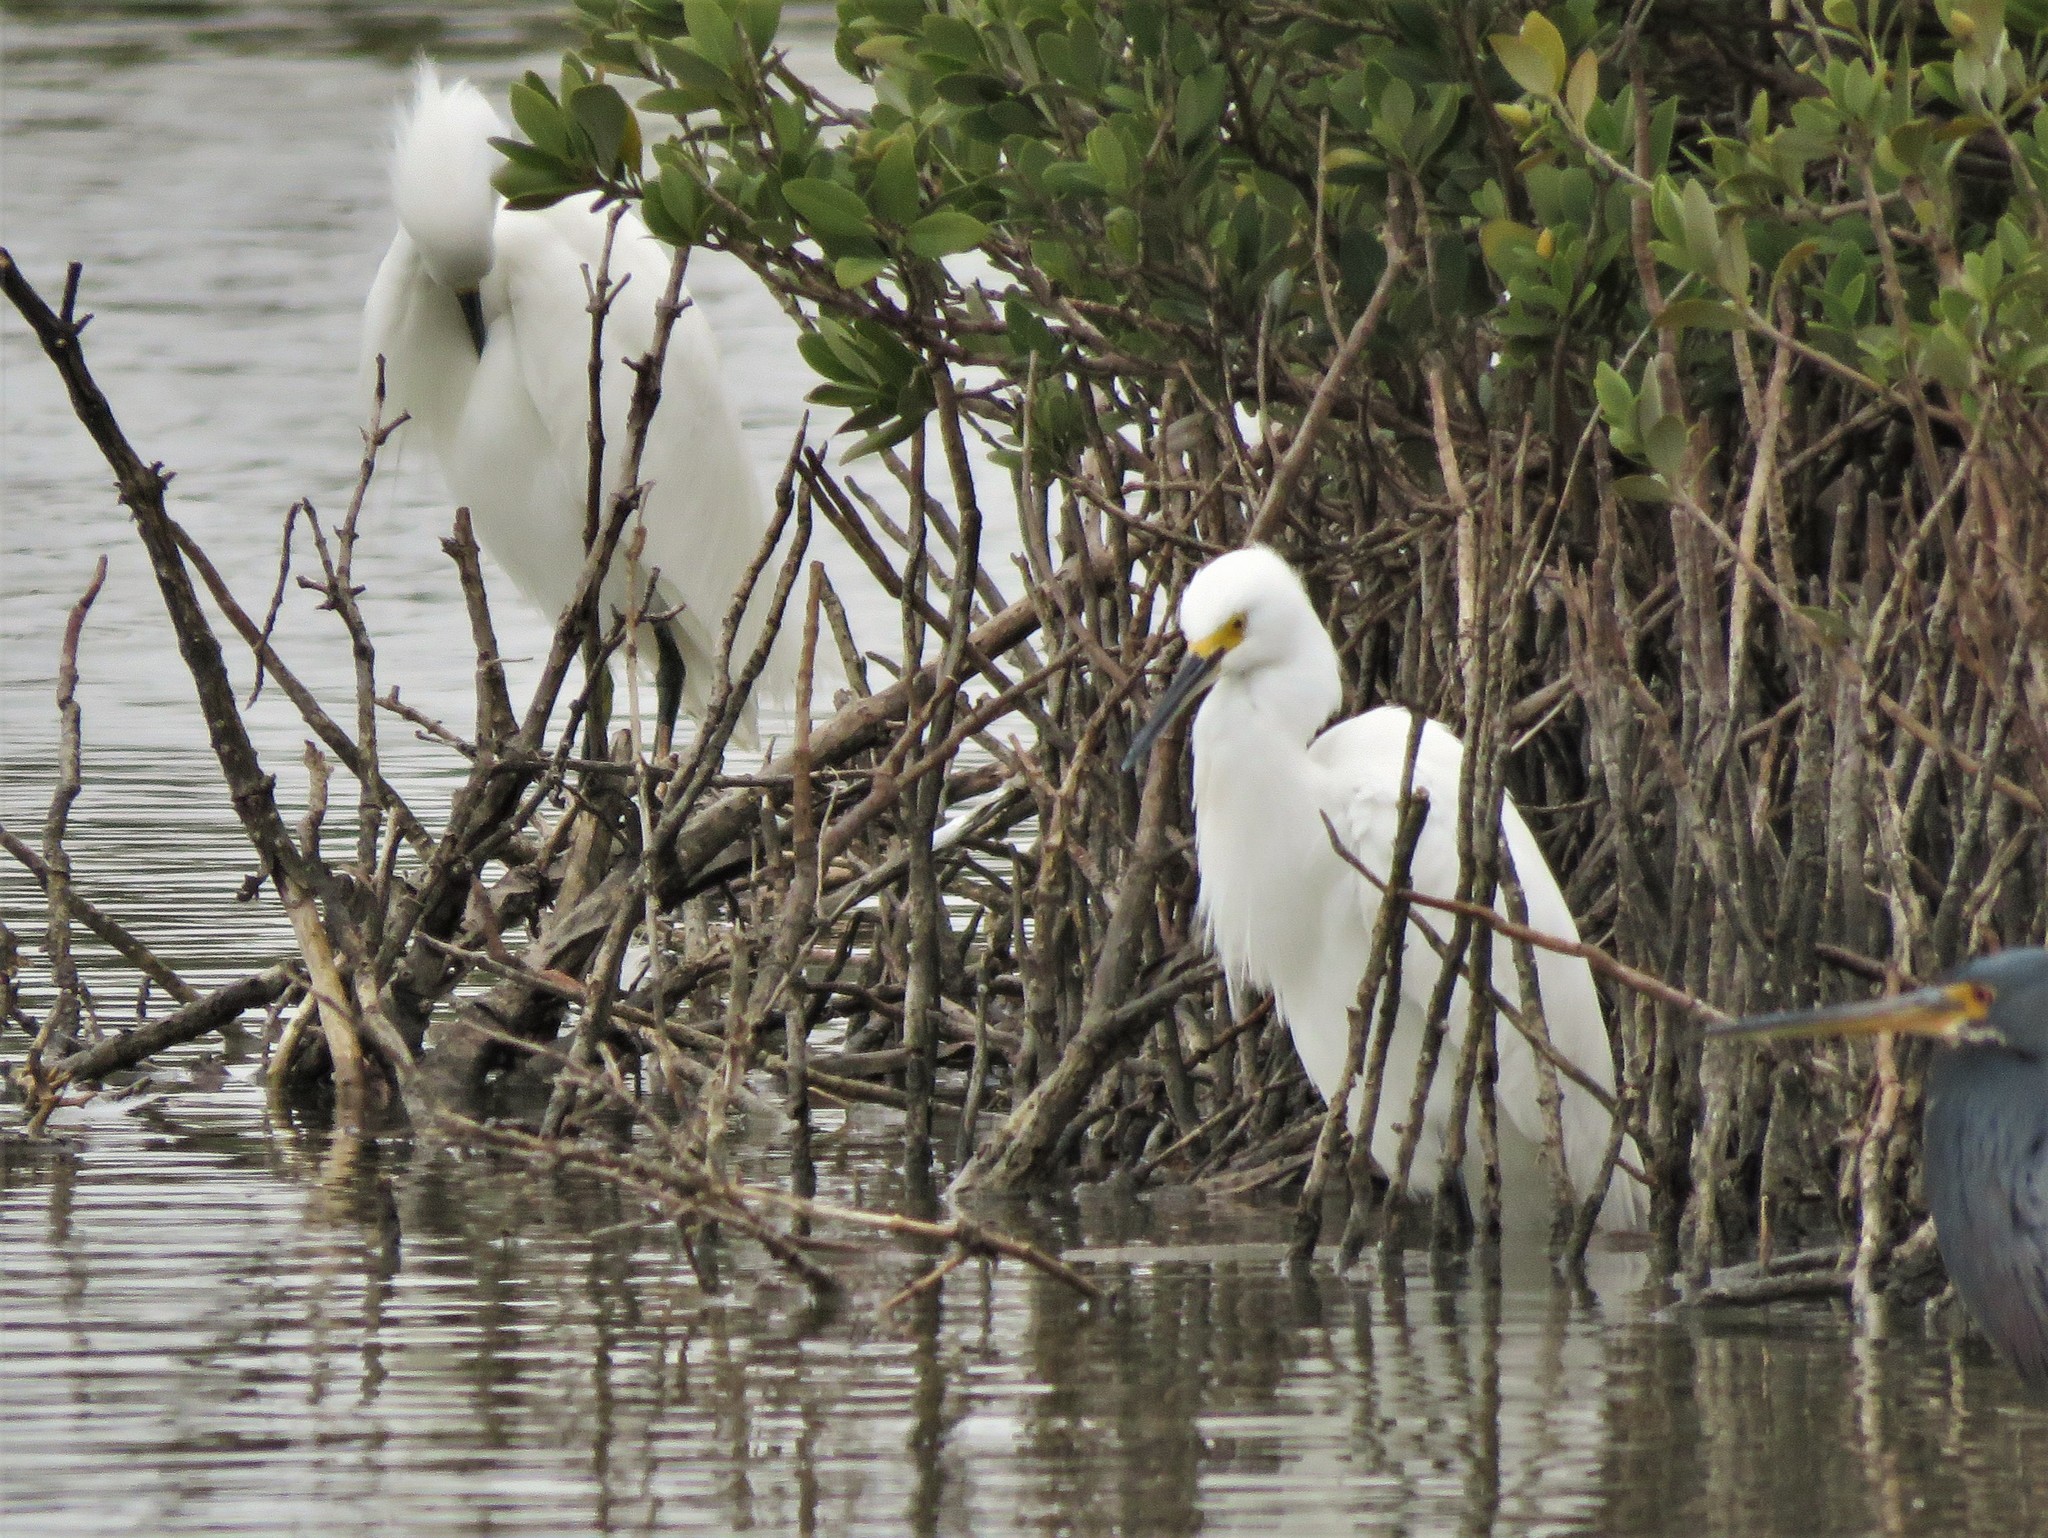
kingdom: Animalia
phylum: Chordata
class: Aves
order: Pelecaniformes
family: Ardeidae
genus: Egretta
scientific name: Egretta thula
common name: Snowy egret
